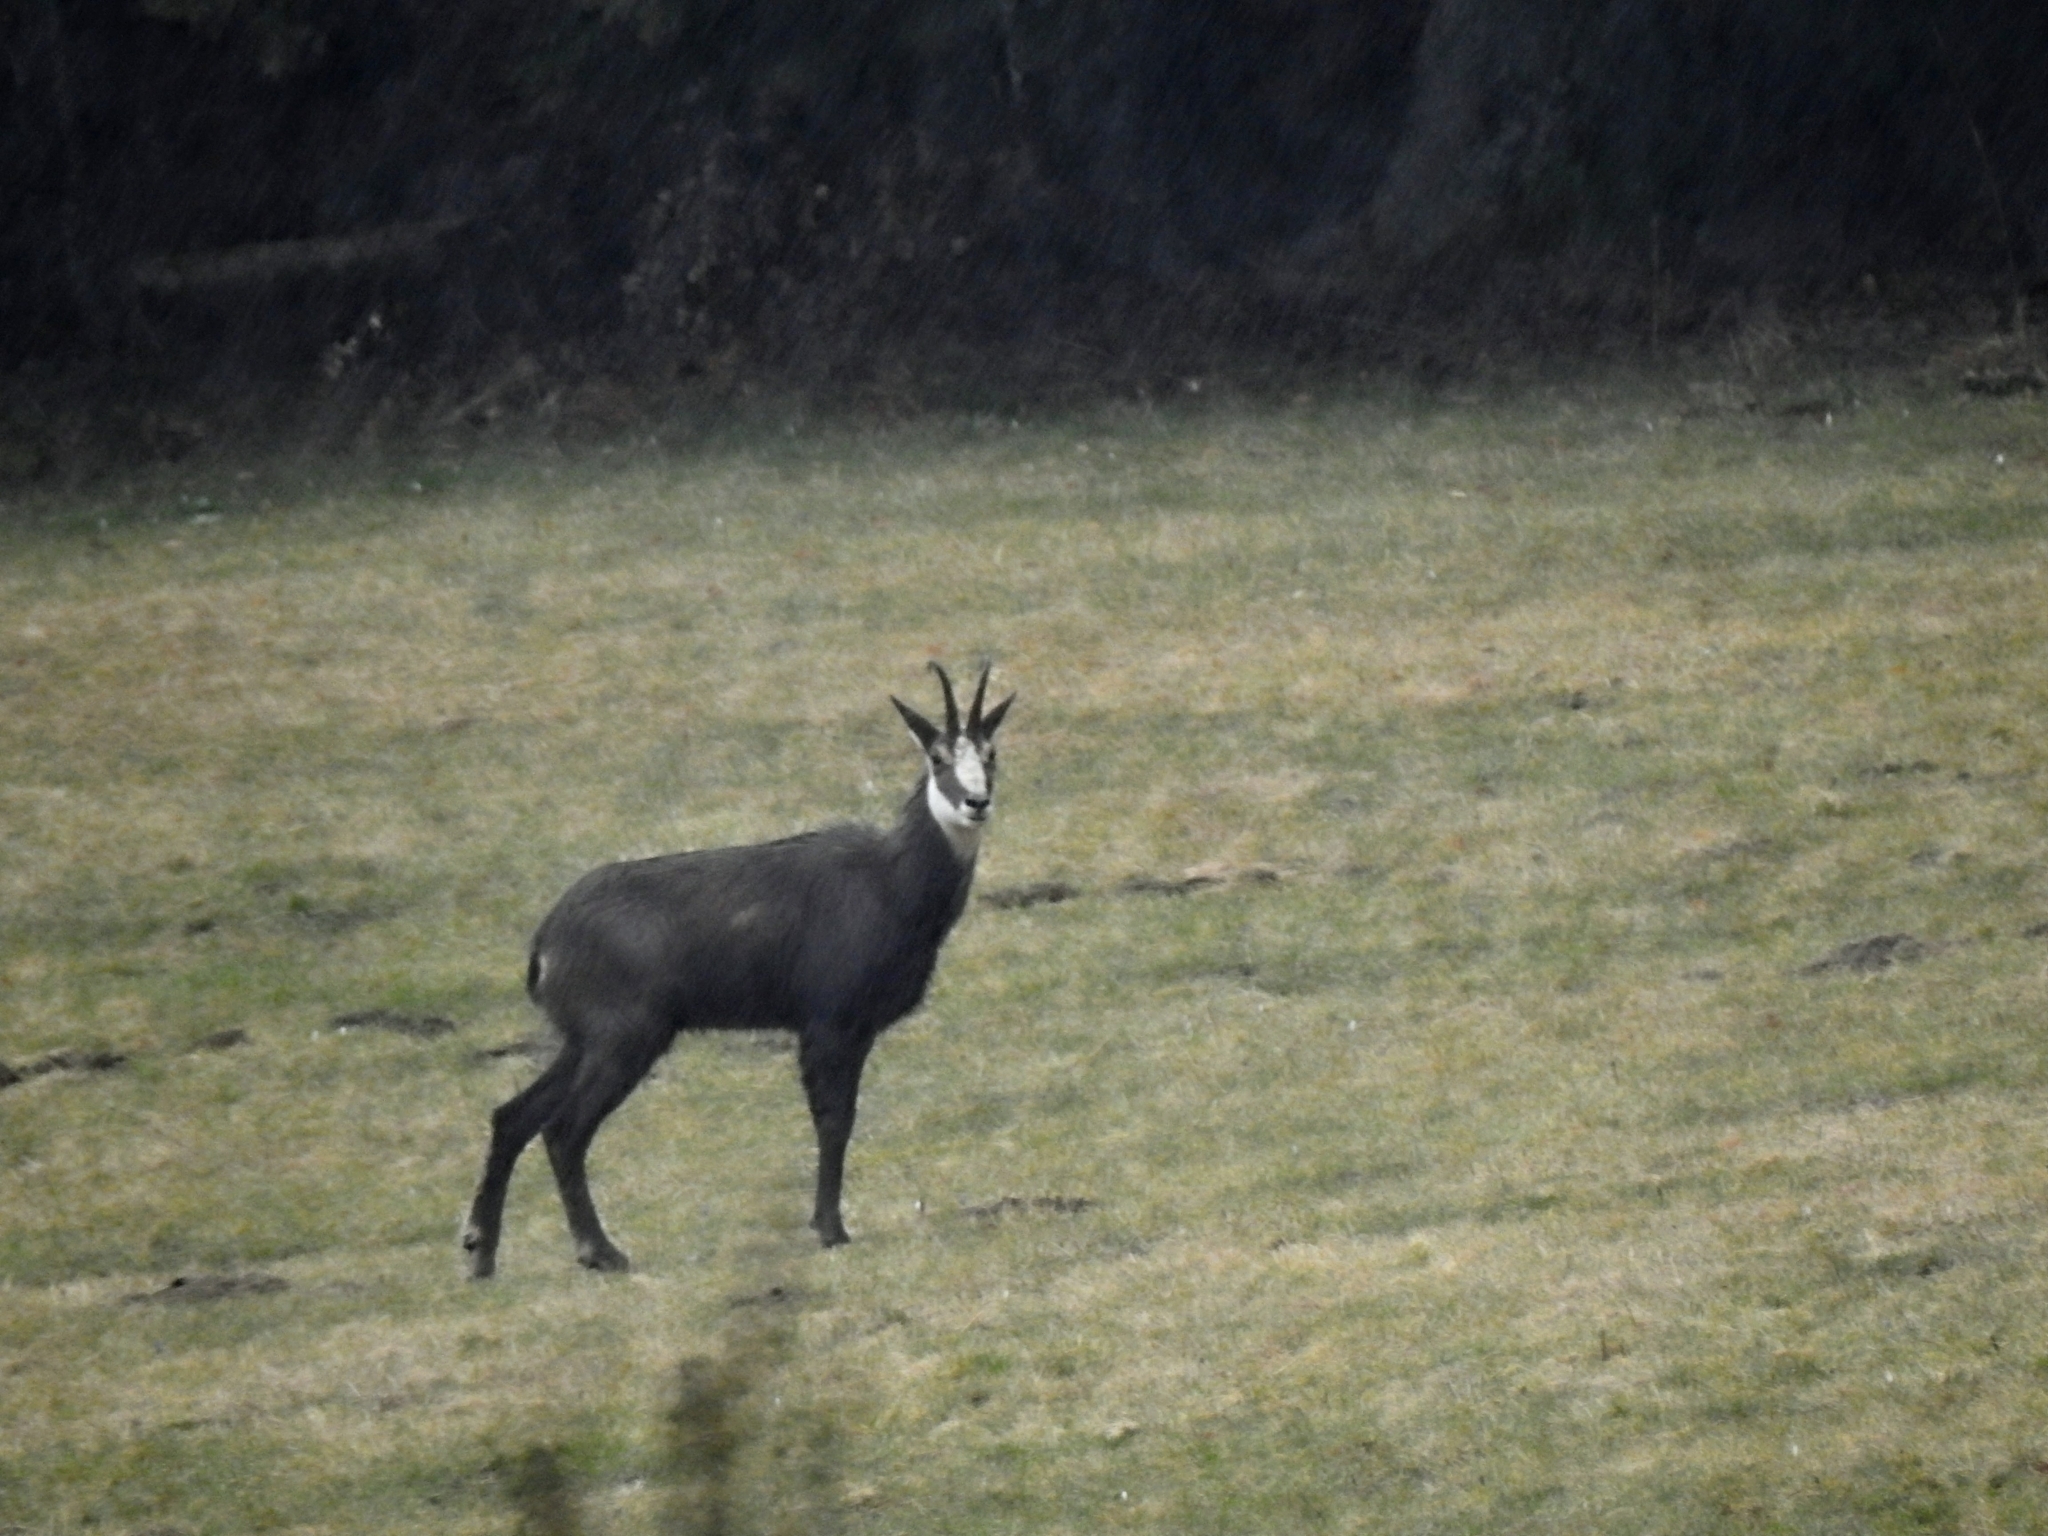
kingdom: Animalia
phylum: Chordata
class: Mammalia
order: Artiodactyla
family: Bovidae
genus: Rupicapra
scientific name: Rupicapra rupicapra
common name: Chamois
